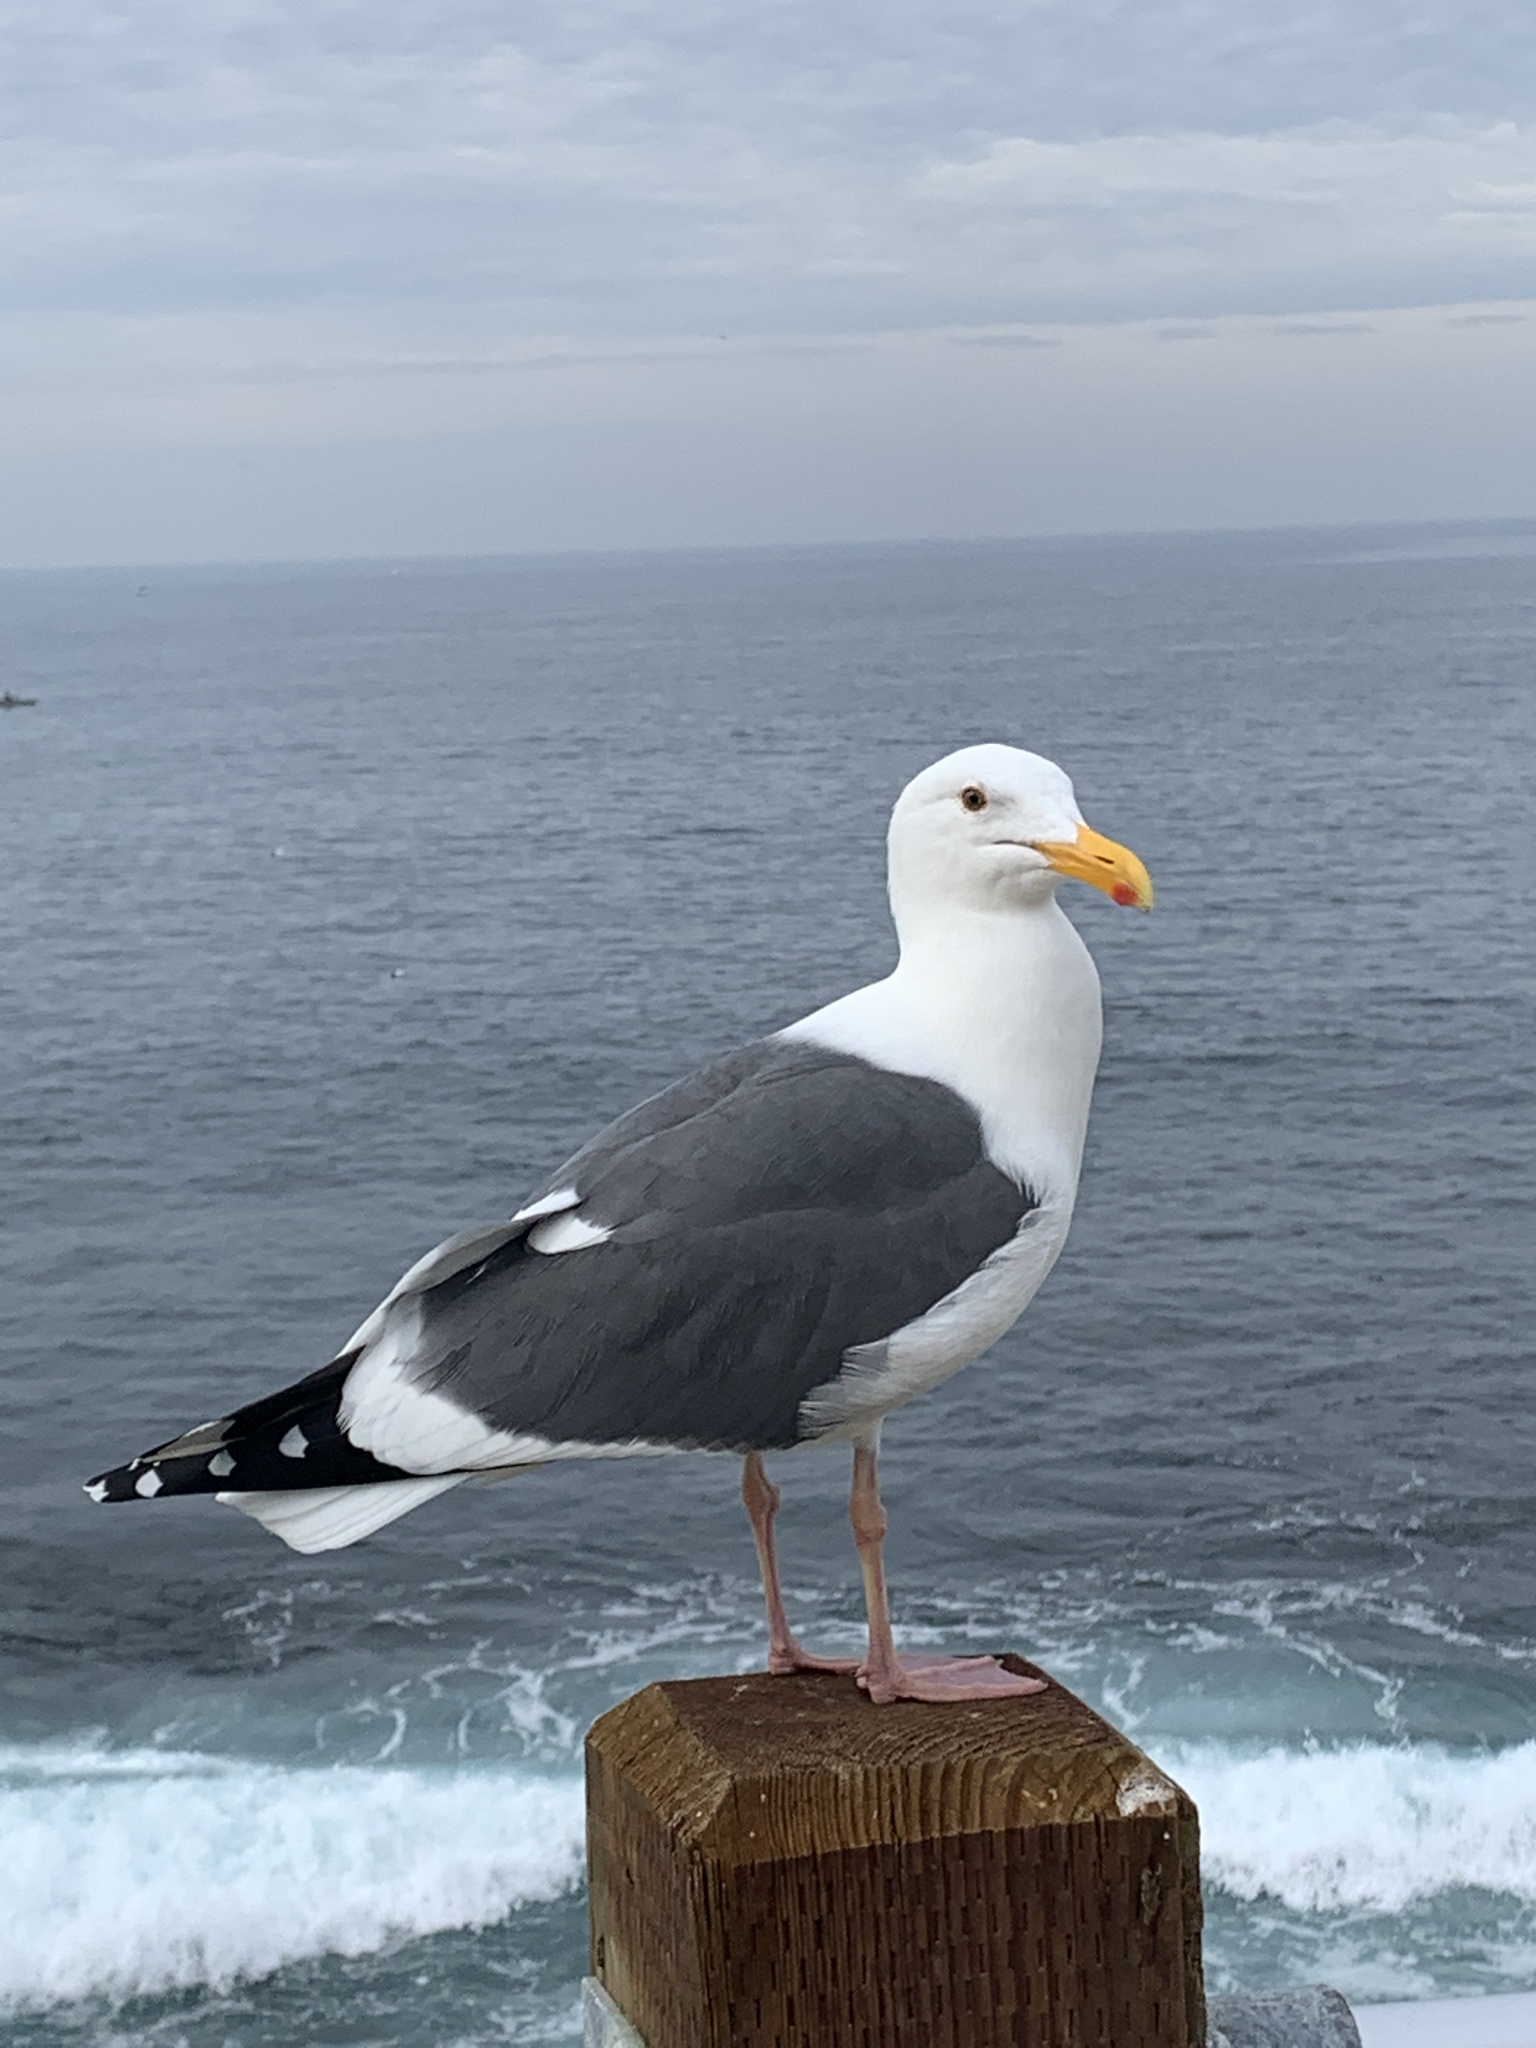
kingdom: Animalia
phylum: Chordata
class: Aves
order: Charadriiformes
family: Laridae
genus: Larus
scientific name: Larus occidentalis
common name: Western gull
